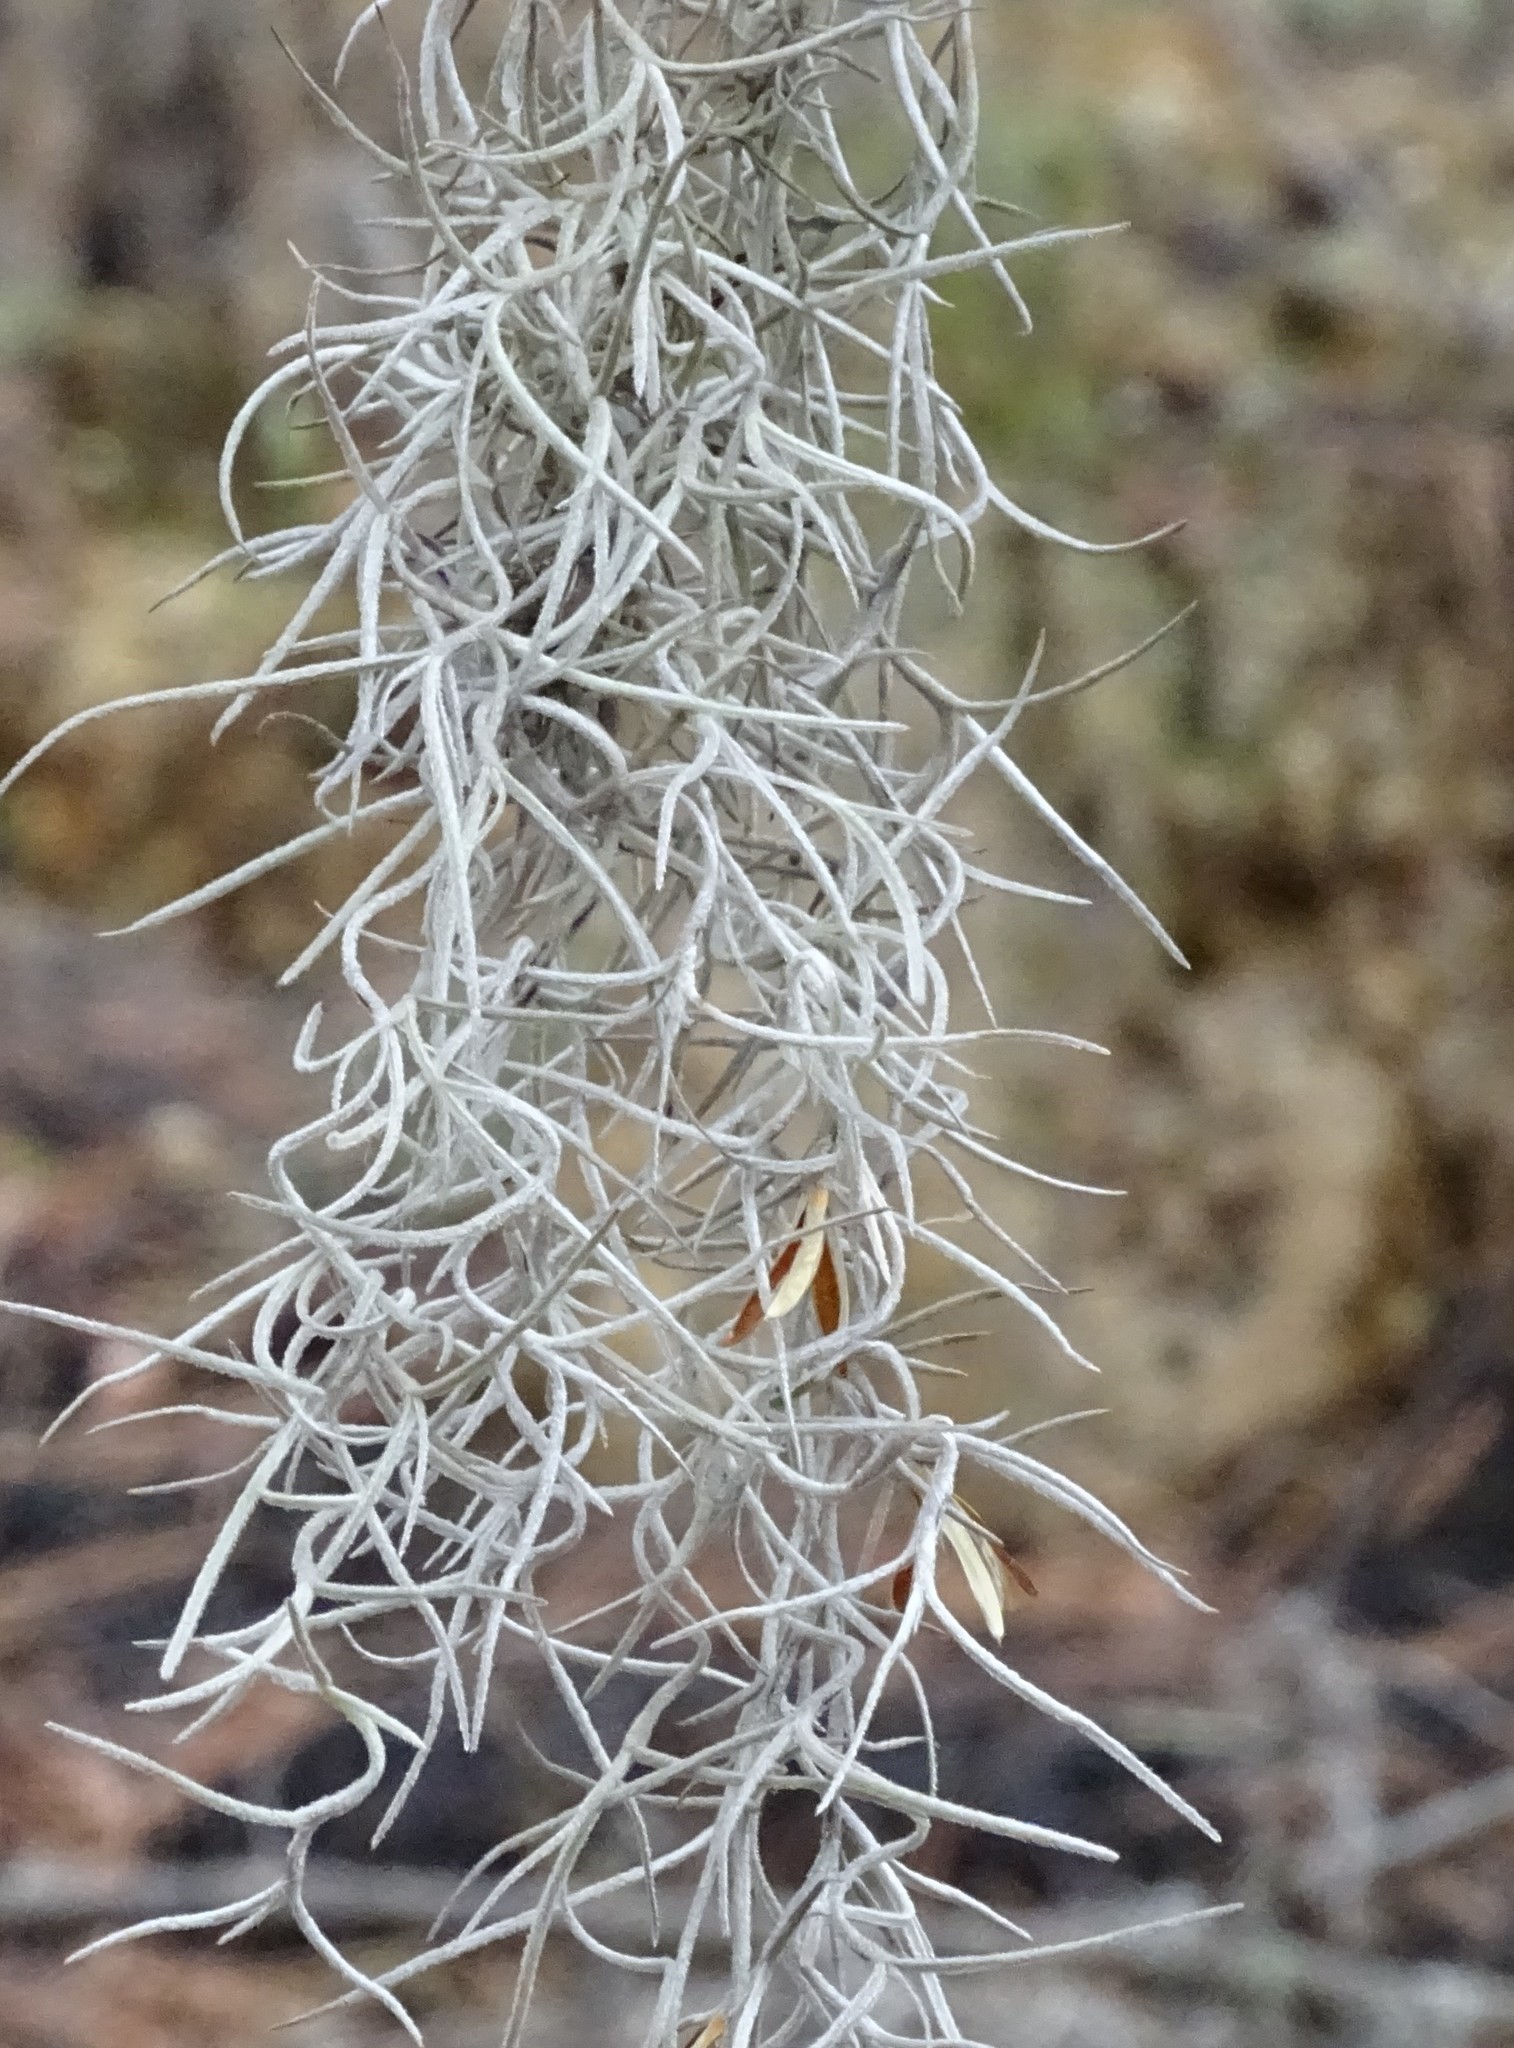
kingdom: Plantae
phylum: Tracheophyta
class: Liliopsida
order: Poales
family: Bromeliaceae
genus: Tillandsia
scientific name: Tillandsia usneoides
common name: Spanish moss
